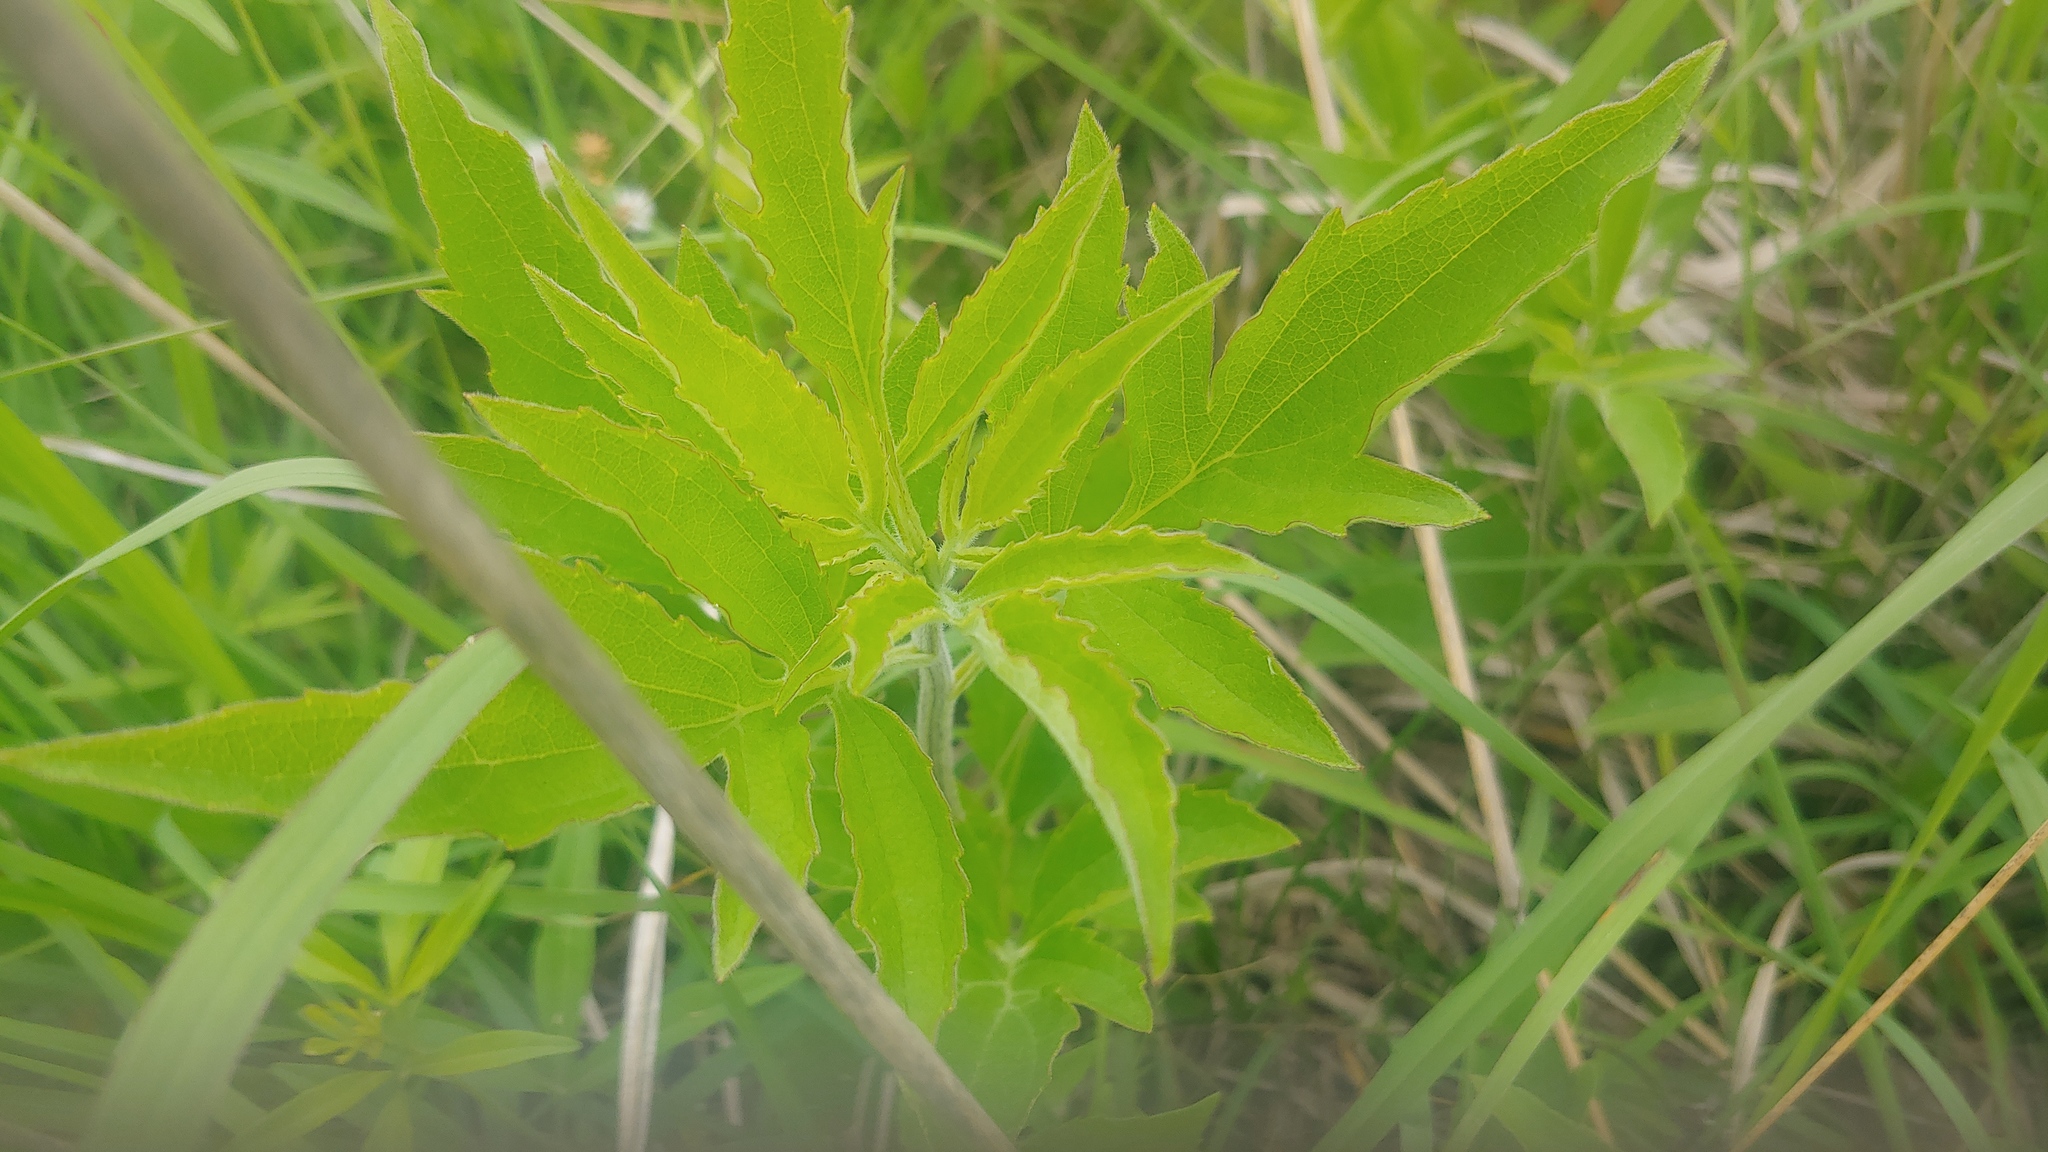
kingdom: Plantae
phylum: Tracheophyta
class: Magnoliopsida
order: Asterales
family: Asteraceae
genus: Rudbeckia
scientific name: Rudbeckia subtomentosa
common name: Sweet coneflower
